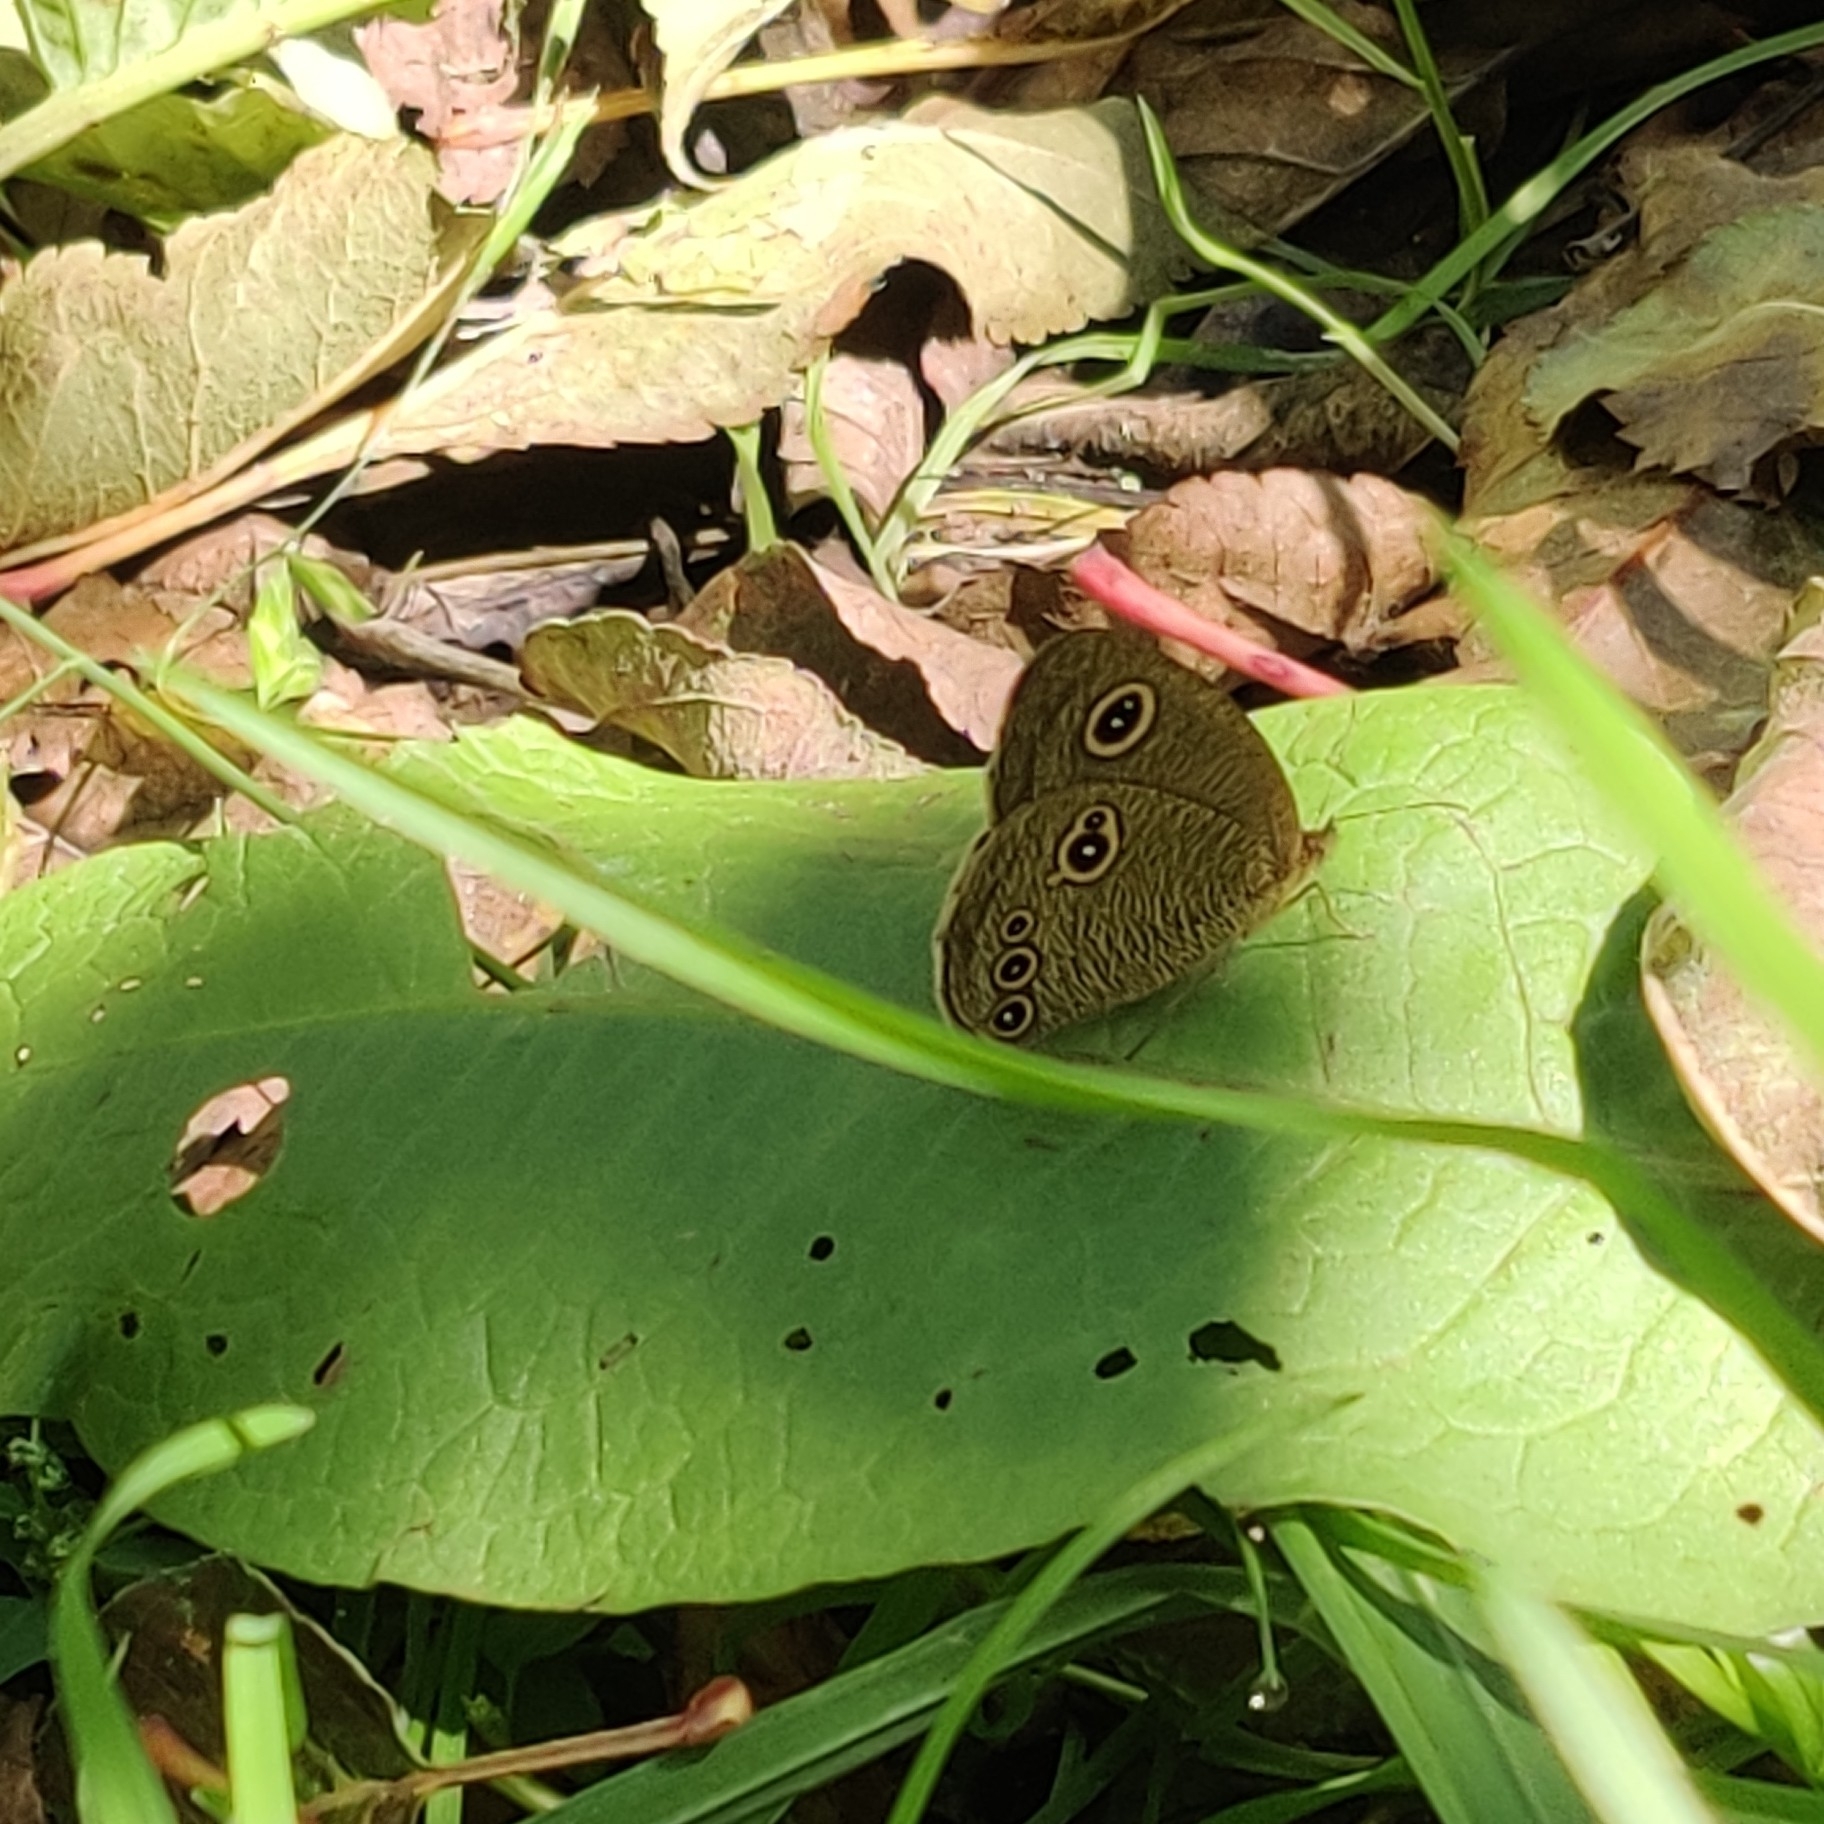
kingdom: Animalia
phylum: Arthropoda
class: Insecta
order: Lepidoptera
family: Nymphalidae
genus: Ypthima
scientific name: Ypthima nikaea
